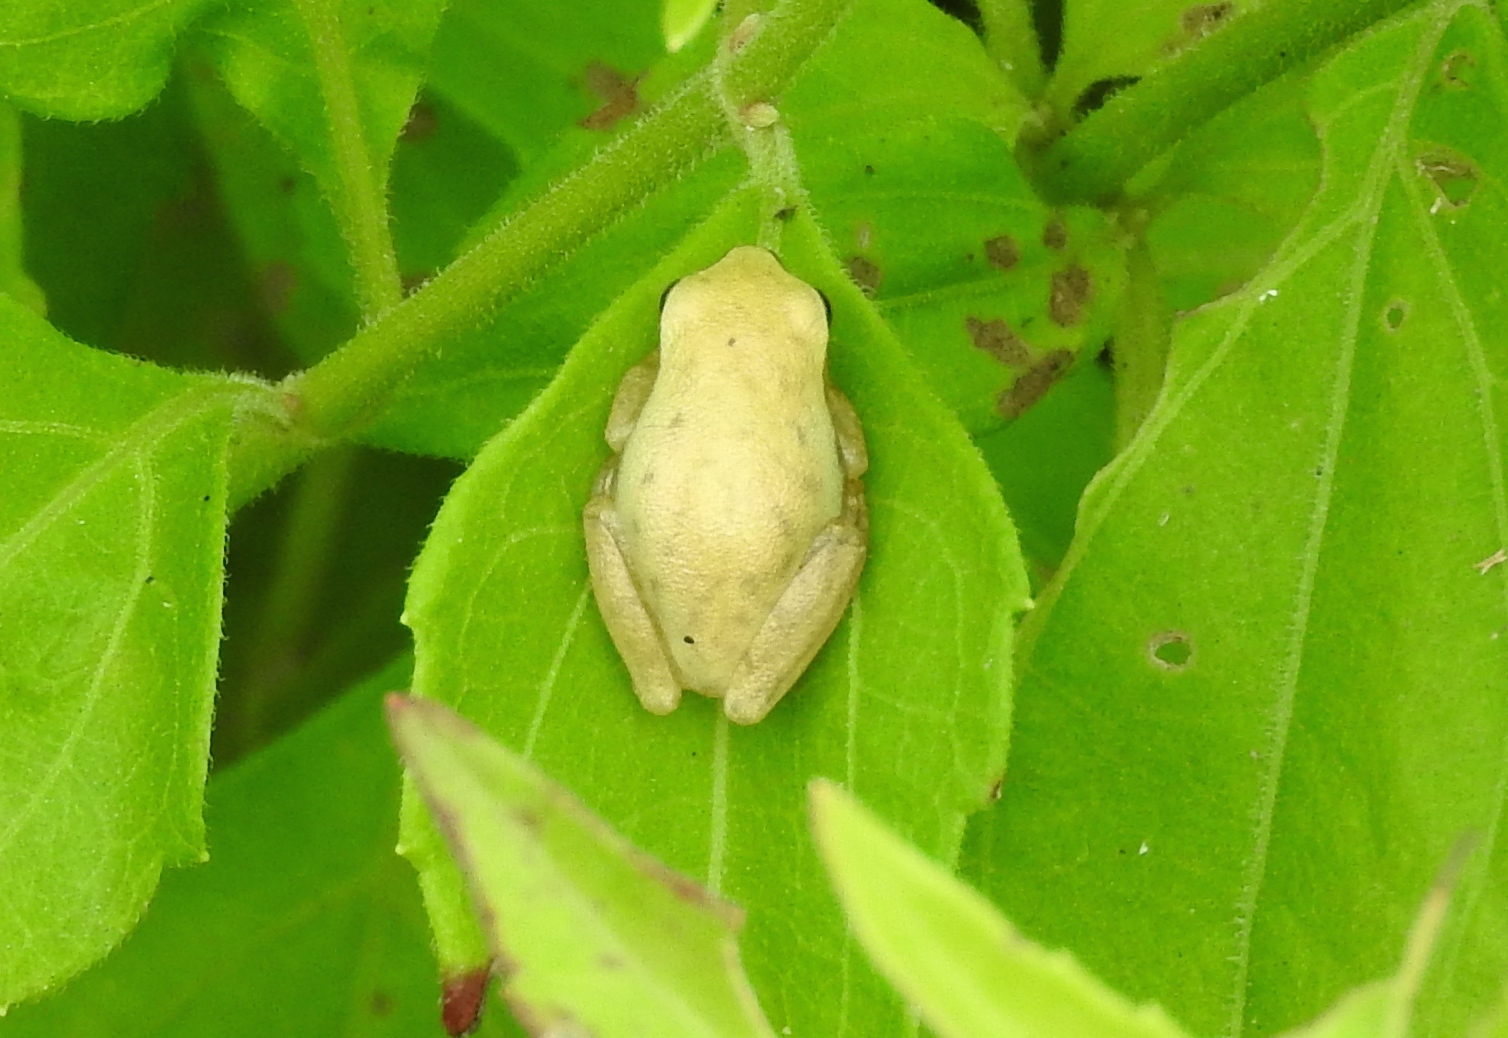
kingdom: Animalia
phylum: Chordata
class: Amphibia
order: Anura
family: Hylidae
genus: Tlalocohyla
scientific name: Tlalocohyla smithii
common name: Dwarf mexican treefrog
